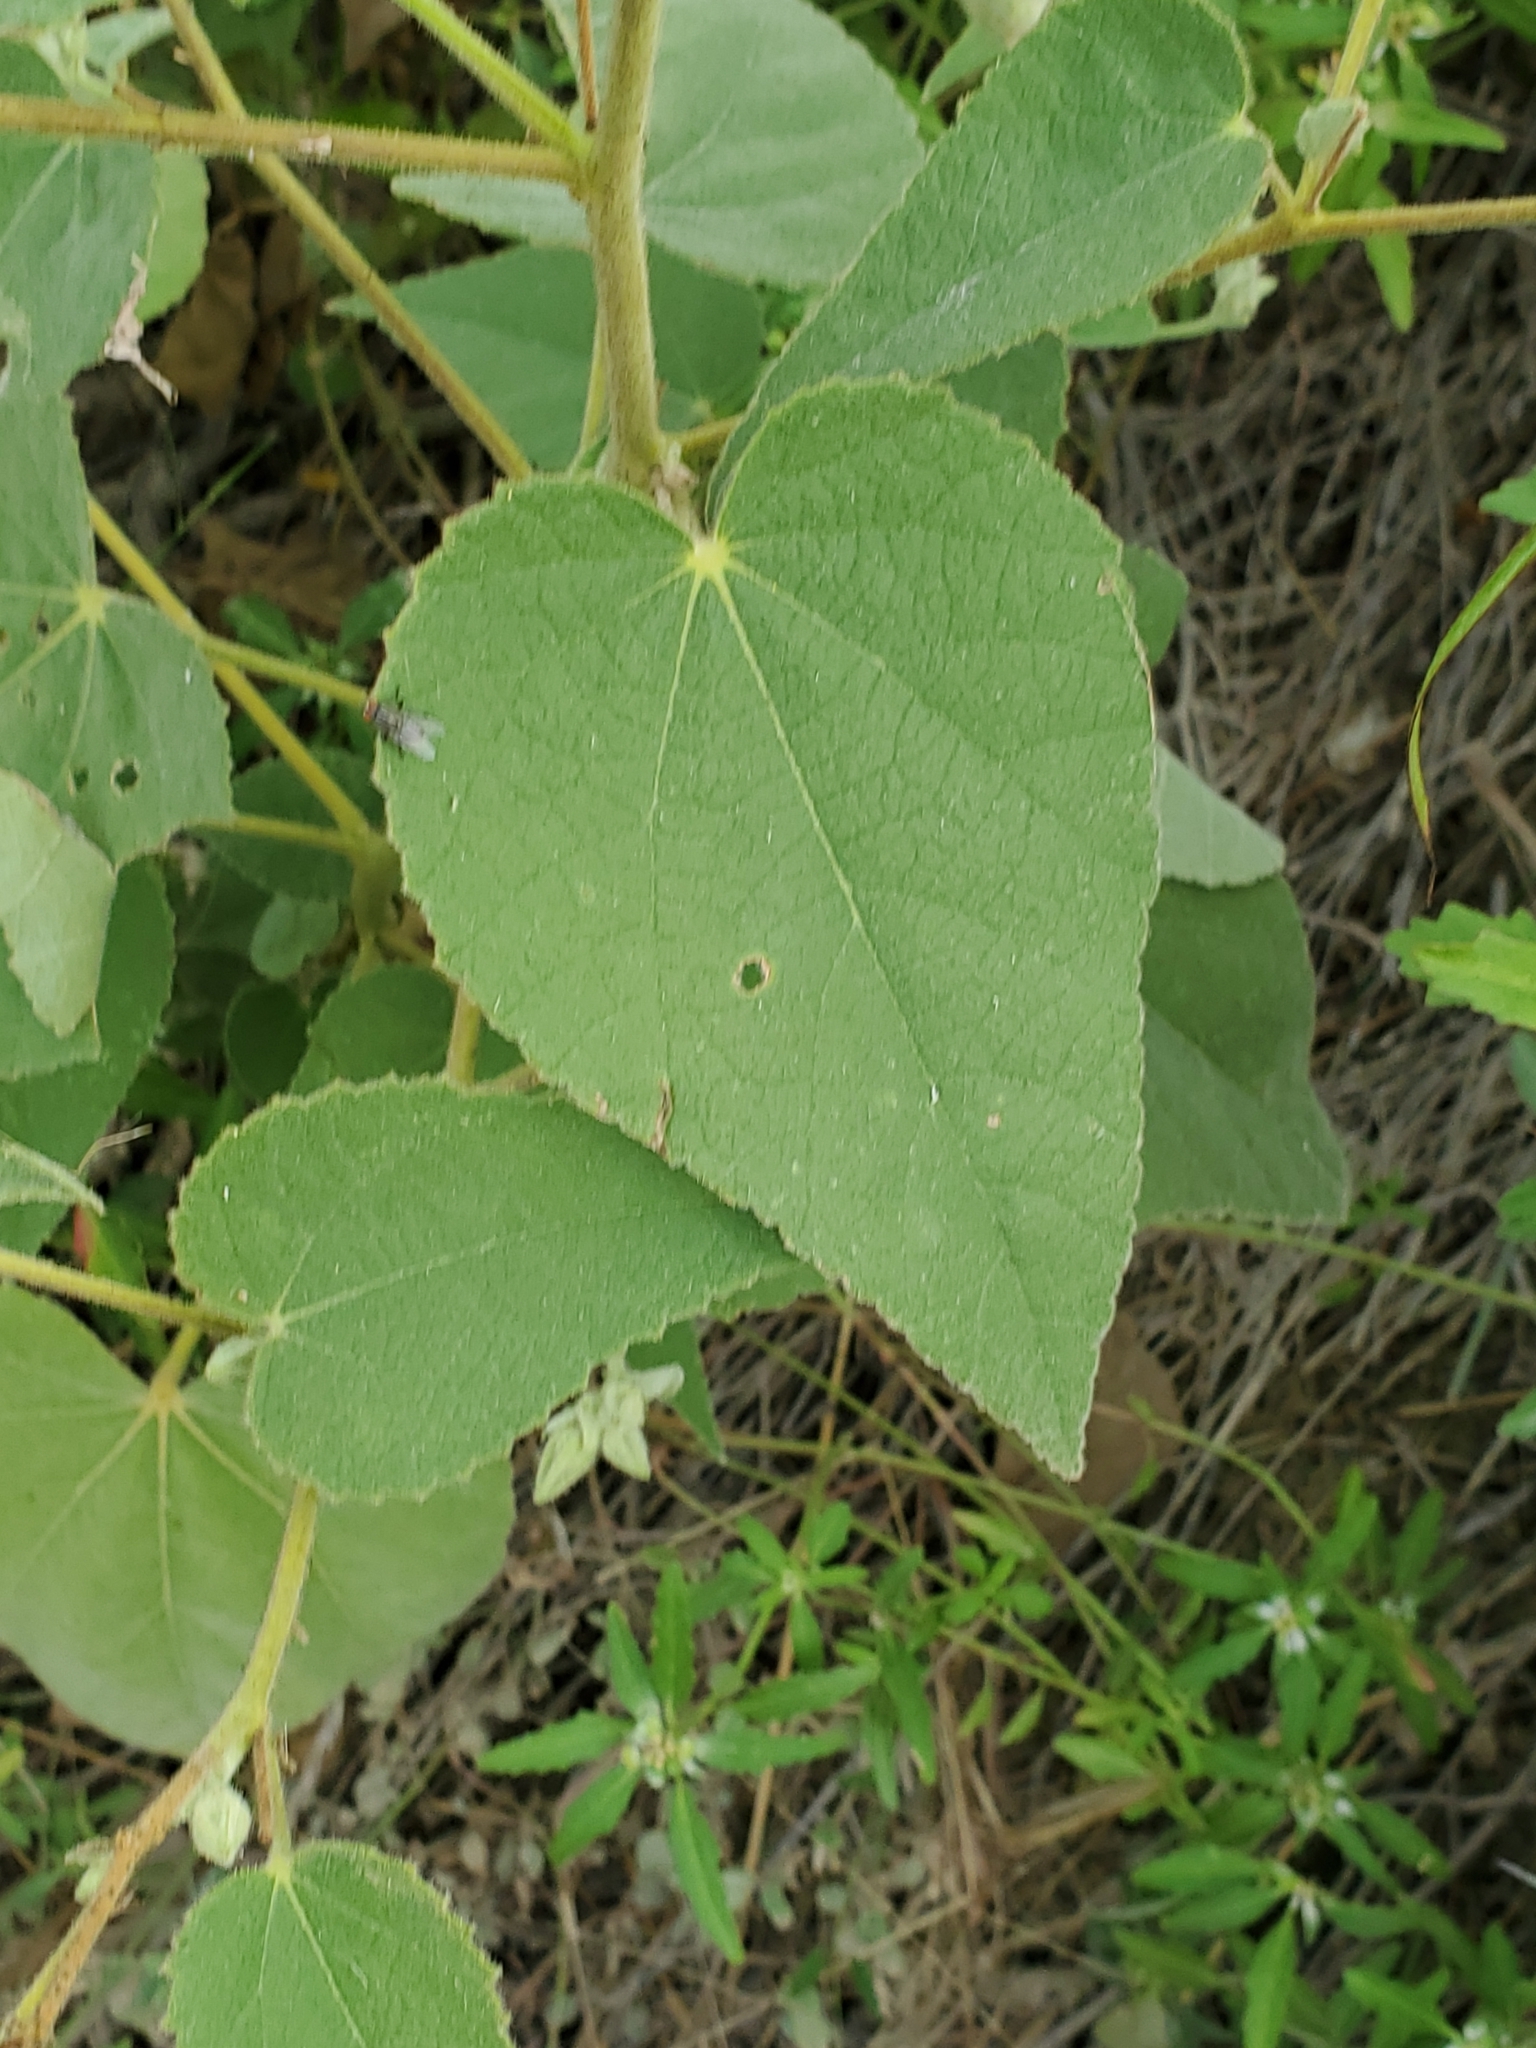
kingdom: Plantae
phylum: Tracheophyta
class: Magnoliopsida
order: Malvales
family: Malvaceae
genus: Allowissadula
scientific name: Allowissadula holosericea
